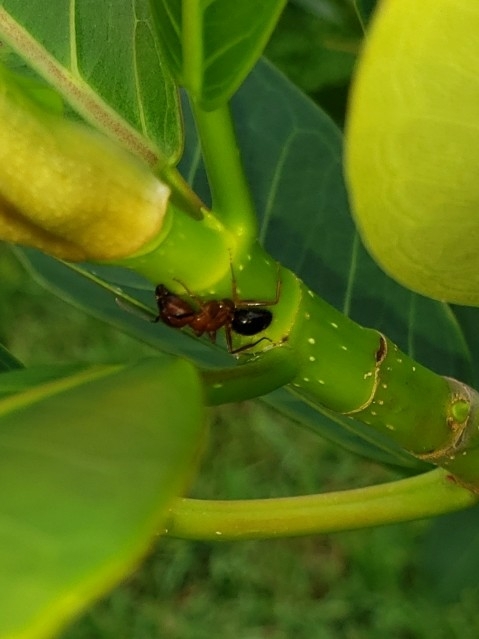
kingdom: Animalia
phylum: Arthropoda
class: Insecta
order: Hymenoptera
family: Formicidae
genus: Camponotus
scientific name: Camponotus floridanus
